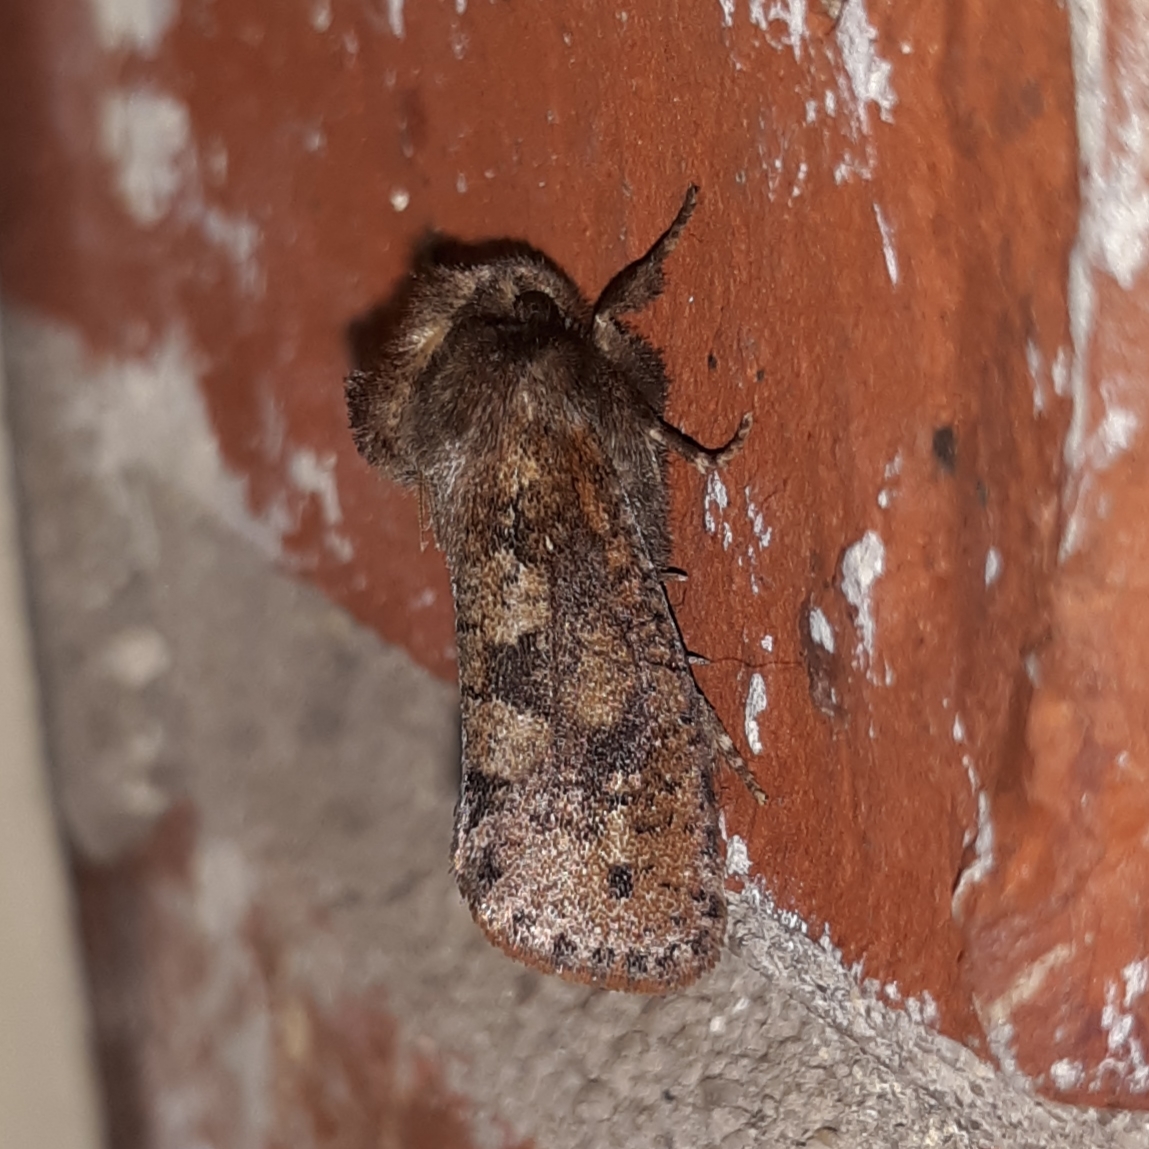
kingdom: Animalia
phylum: Arthropoda
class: Insecta
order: Lepidoptera
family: Tineidae
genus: Acrolophus
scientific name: Acrolophus plumifrontella
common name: Eastern grass tubeworm moth
